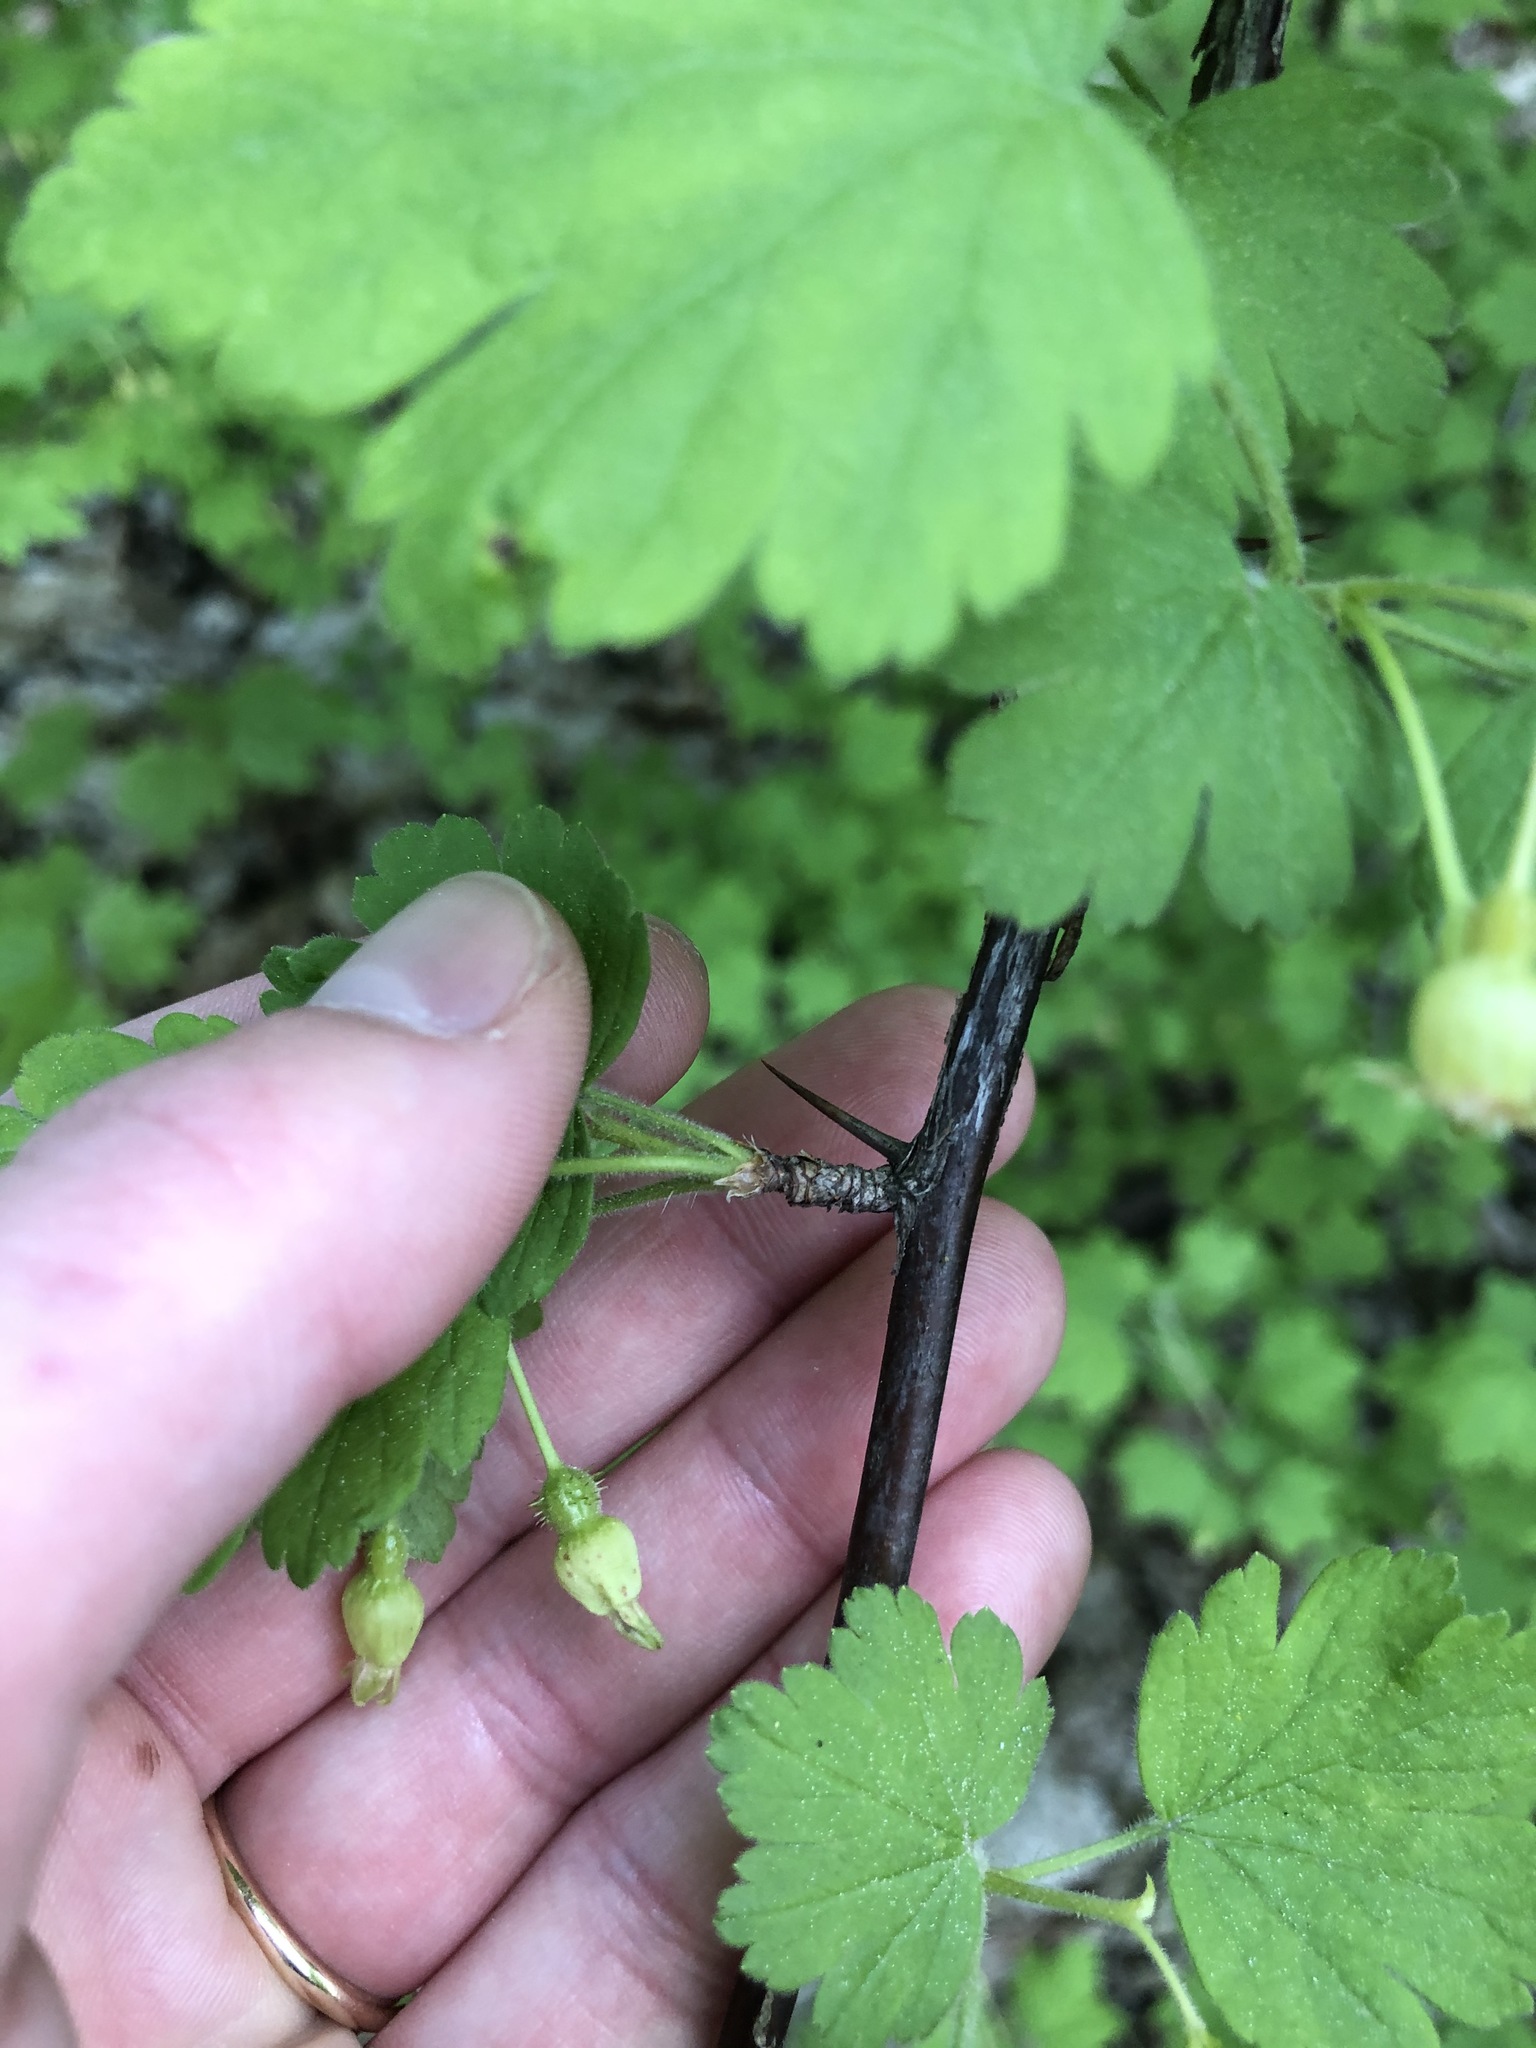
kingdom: Plantae
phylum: Tracheophyta
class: Magnoliopsida
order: Saxifragales
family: Grossulariaceae
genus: Ribes
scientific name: Ribes cynosbati
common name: American gooseberry
